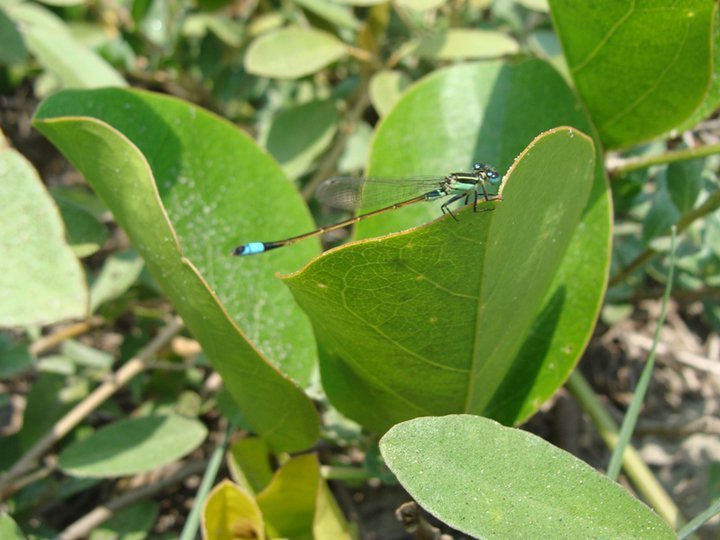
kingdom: Animalia
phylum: Arthropoda
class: Insecta
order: Odonata
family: Coenagrionidae
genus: Ischnura
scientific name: Ischnura ramburii
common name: Rambur's forktail
